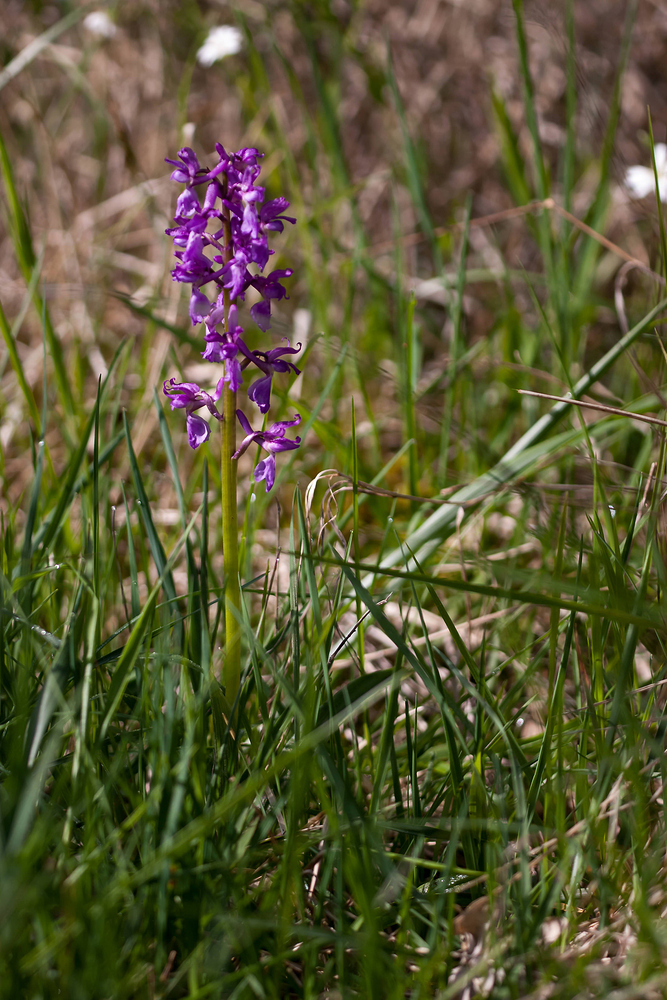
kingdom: Plantae
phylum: Tracheophyta
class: Liliopsida
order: Asparagales
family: Orchidaceae
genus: Orchis
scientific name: Orchis mascula
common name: Early-purple orchid
